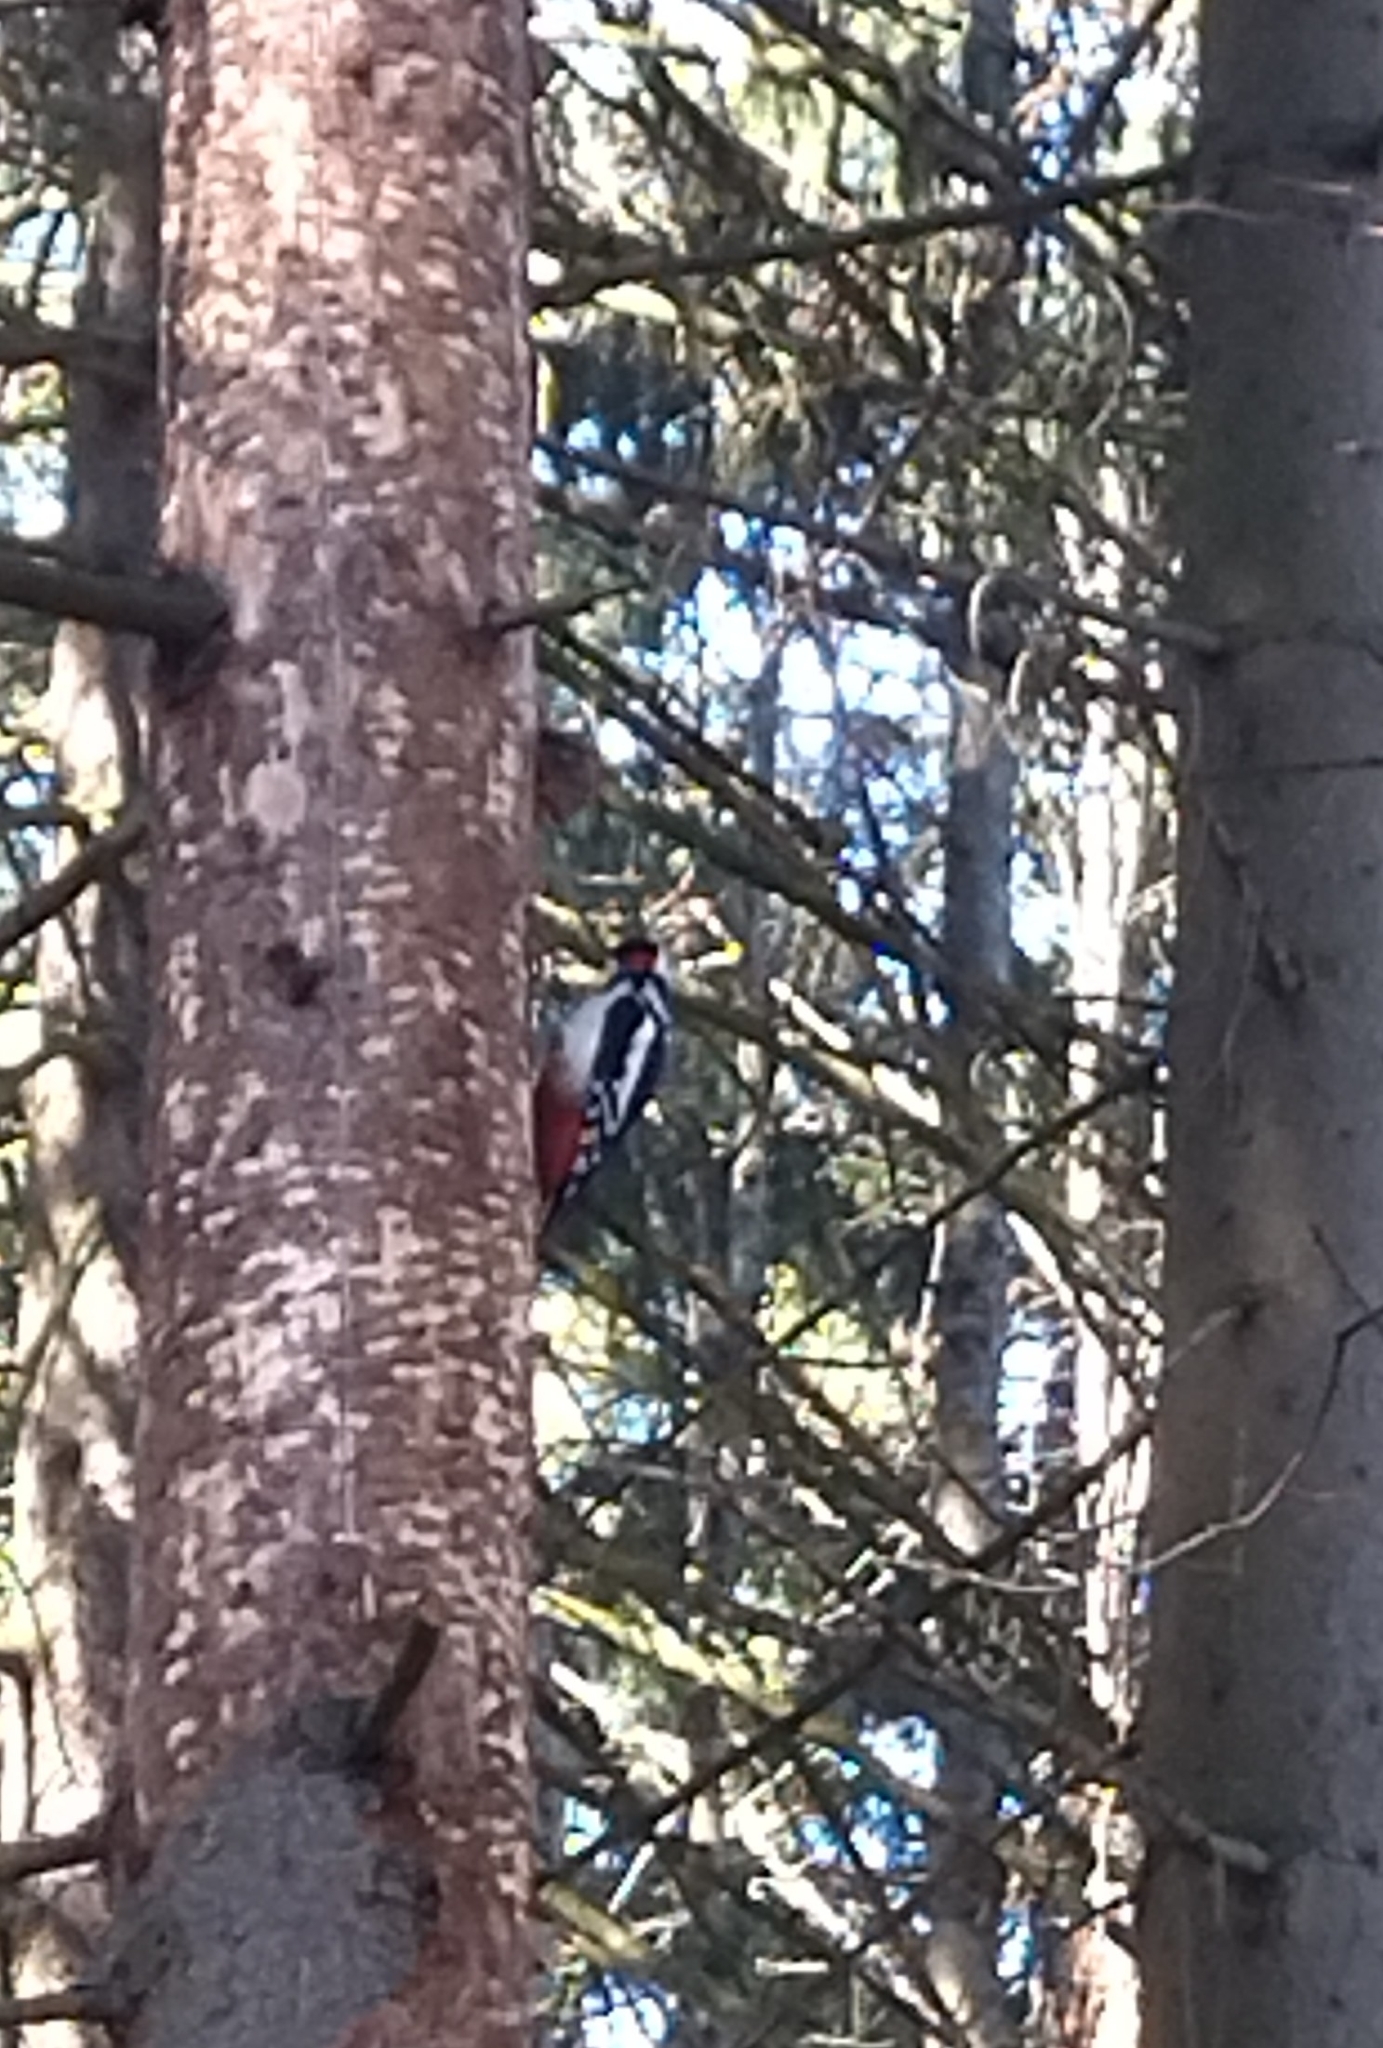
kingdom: Animalia
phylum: Chordata
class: Aves
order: Piciformes
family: Picidae
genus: Dendrocopos
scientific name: Dendrocopos major
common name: Great spotted woodpecker
